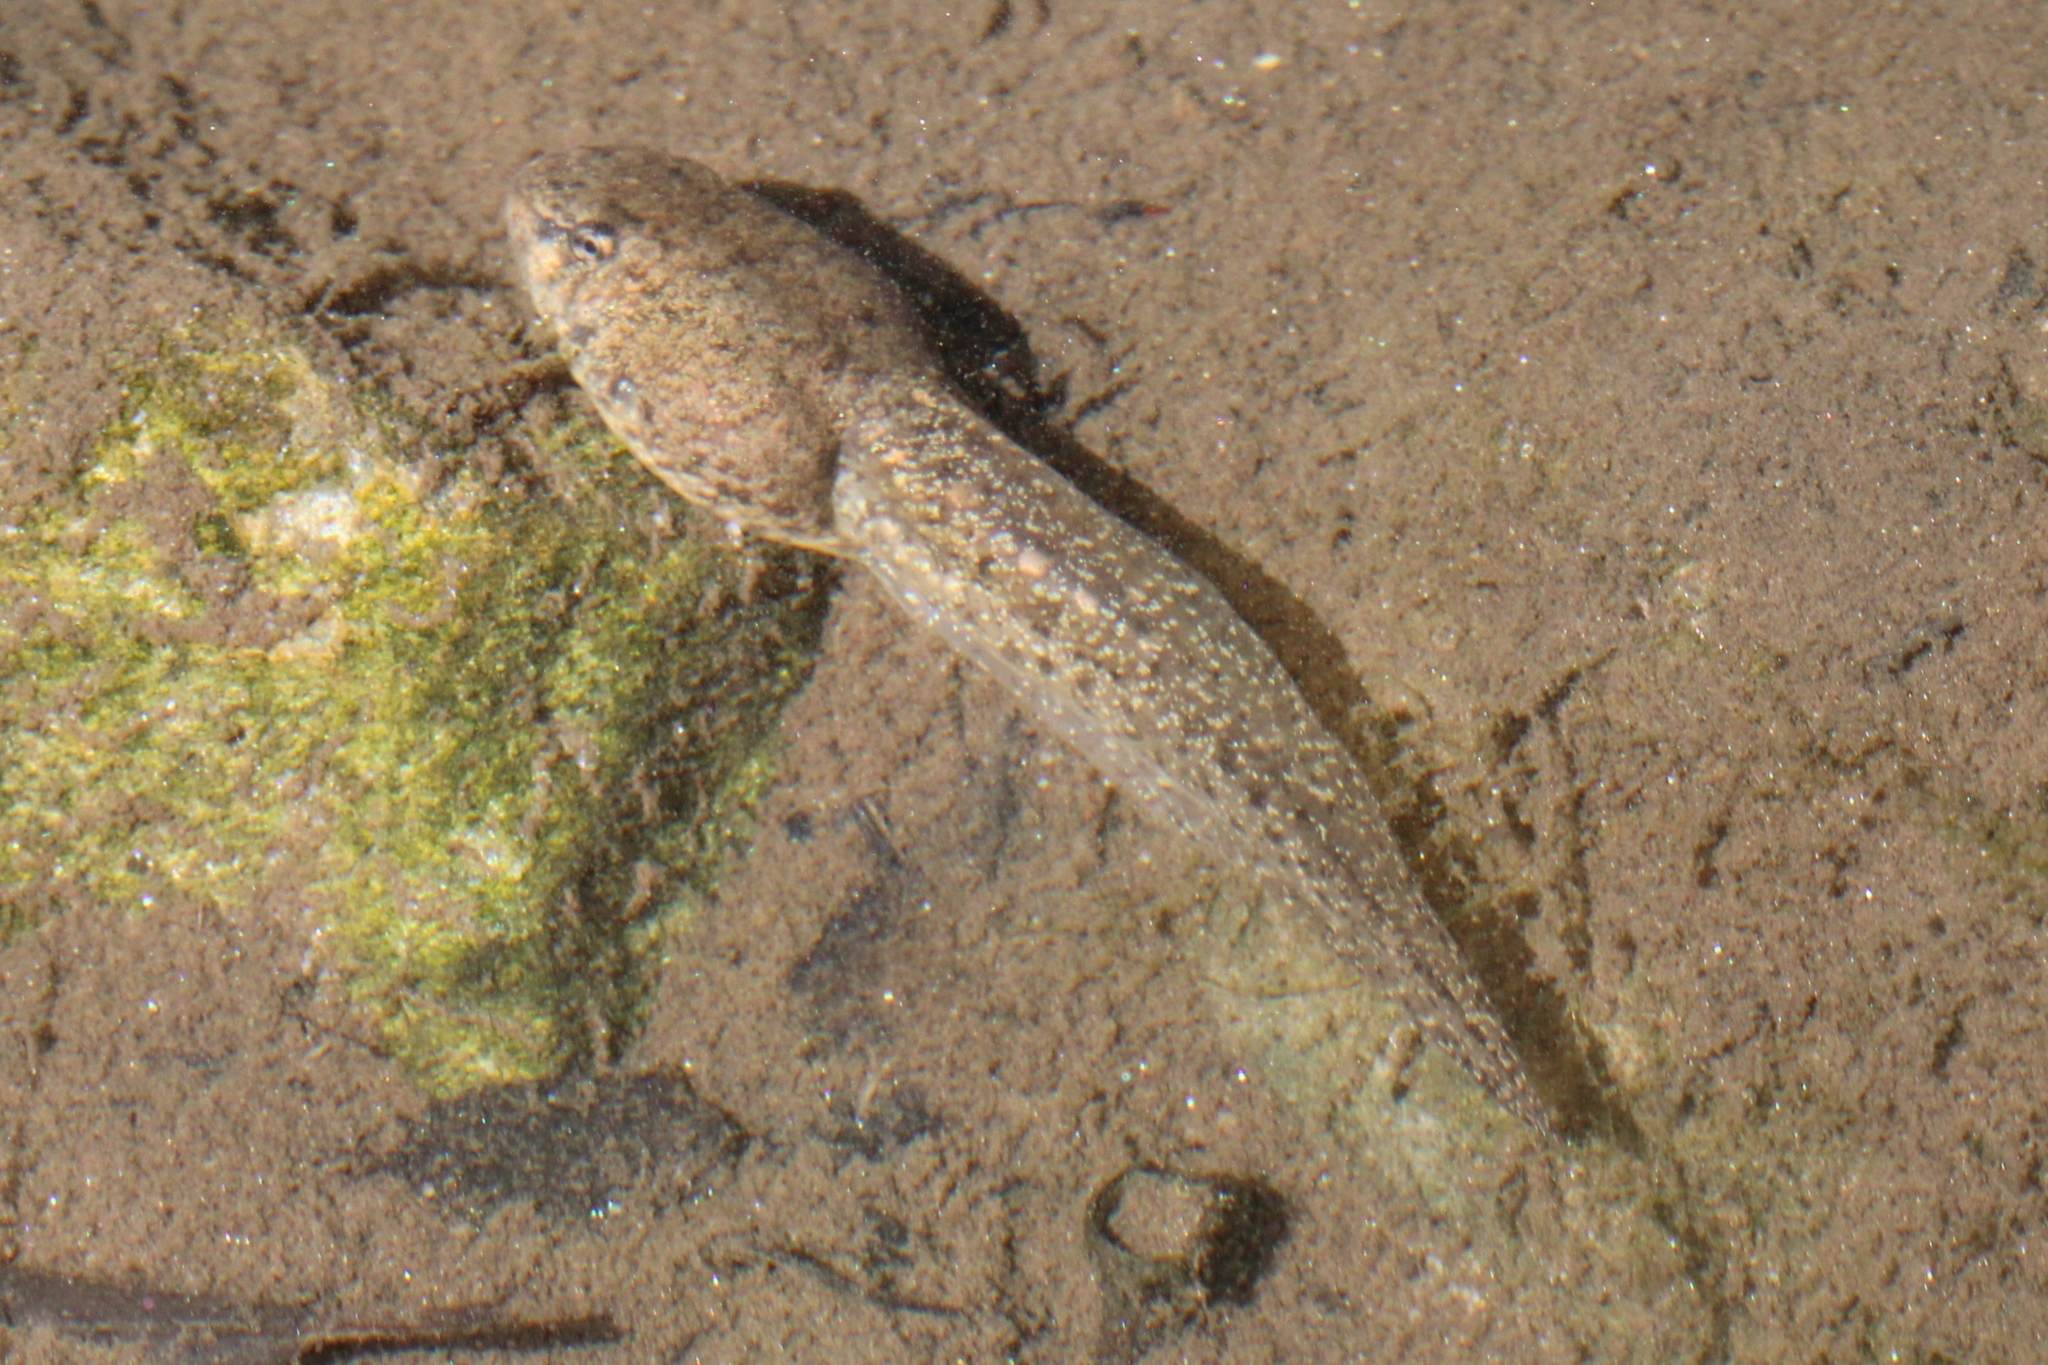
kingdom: Animalia
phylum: Chordata
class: Amphibia
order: Anura
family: Ranidae
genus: Lithobates
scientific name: Lithobates catesbeianus
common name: American bullfrog
